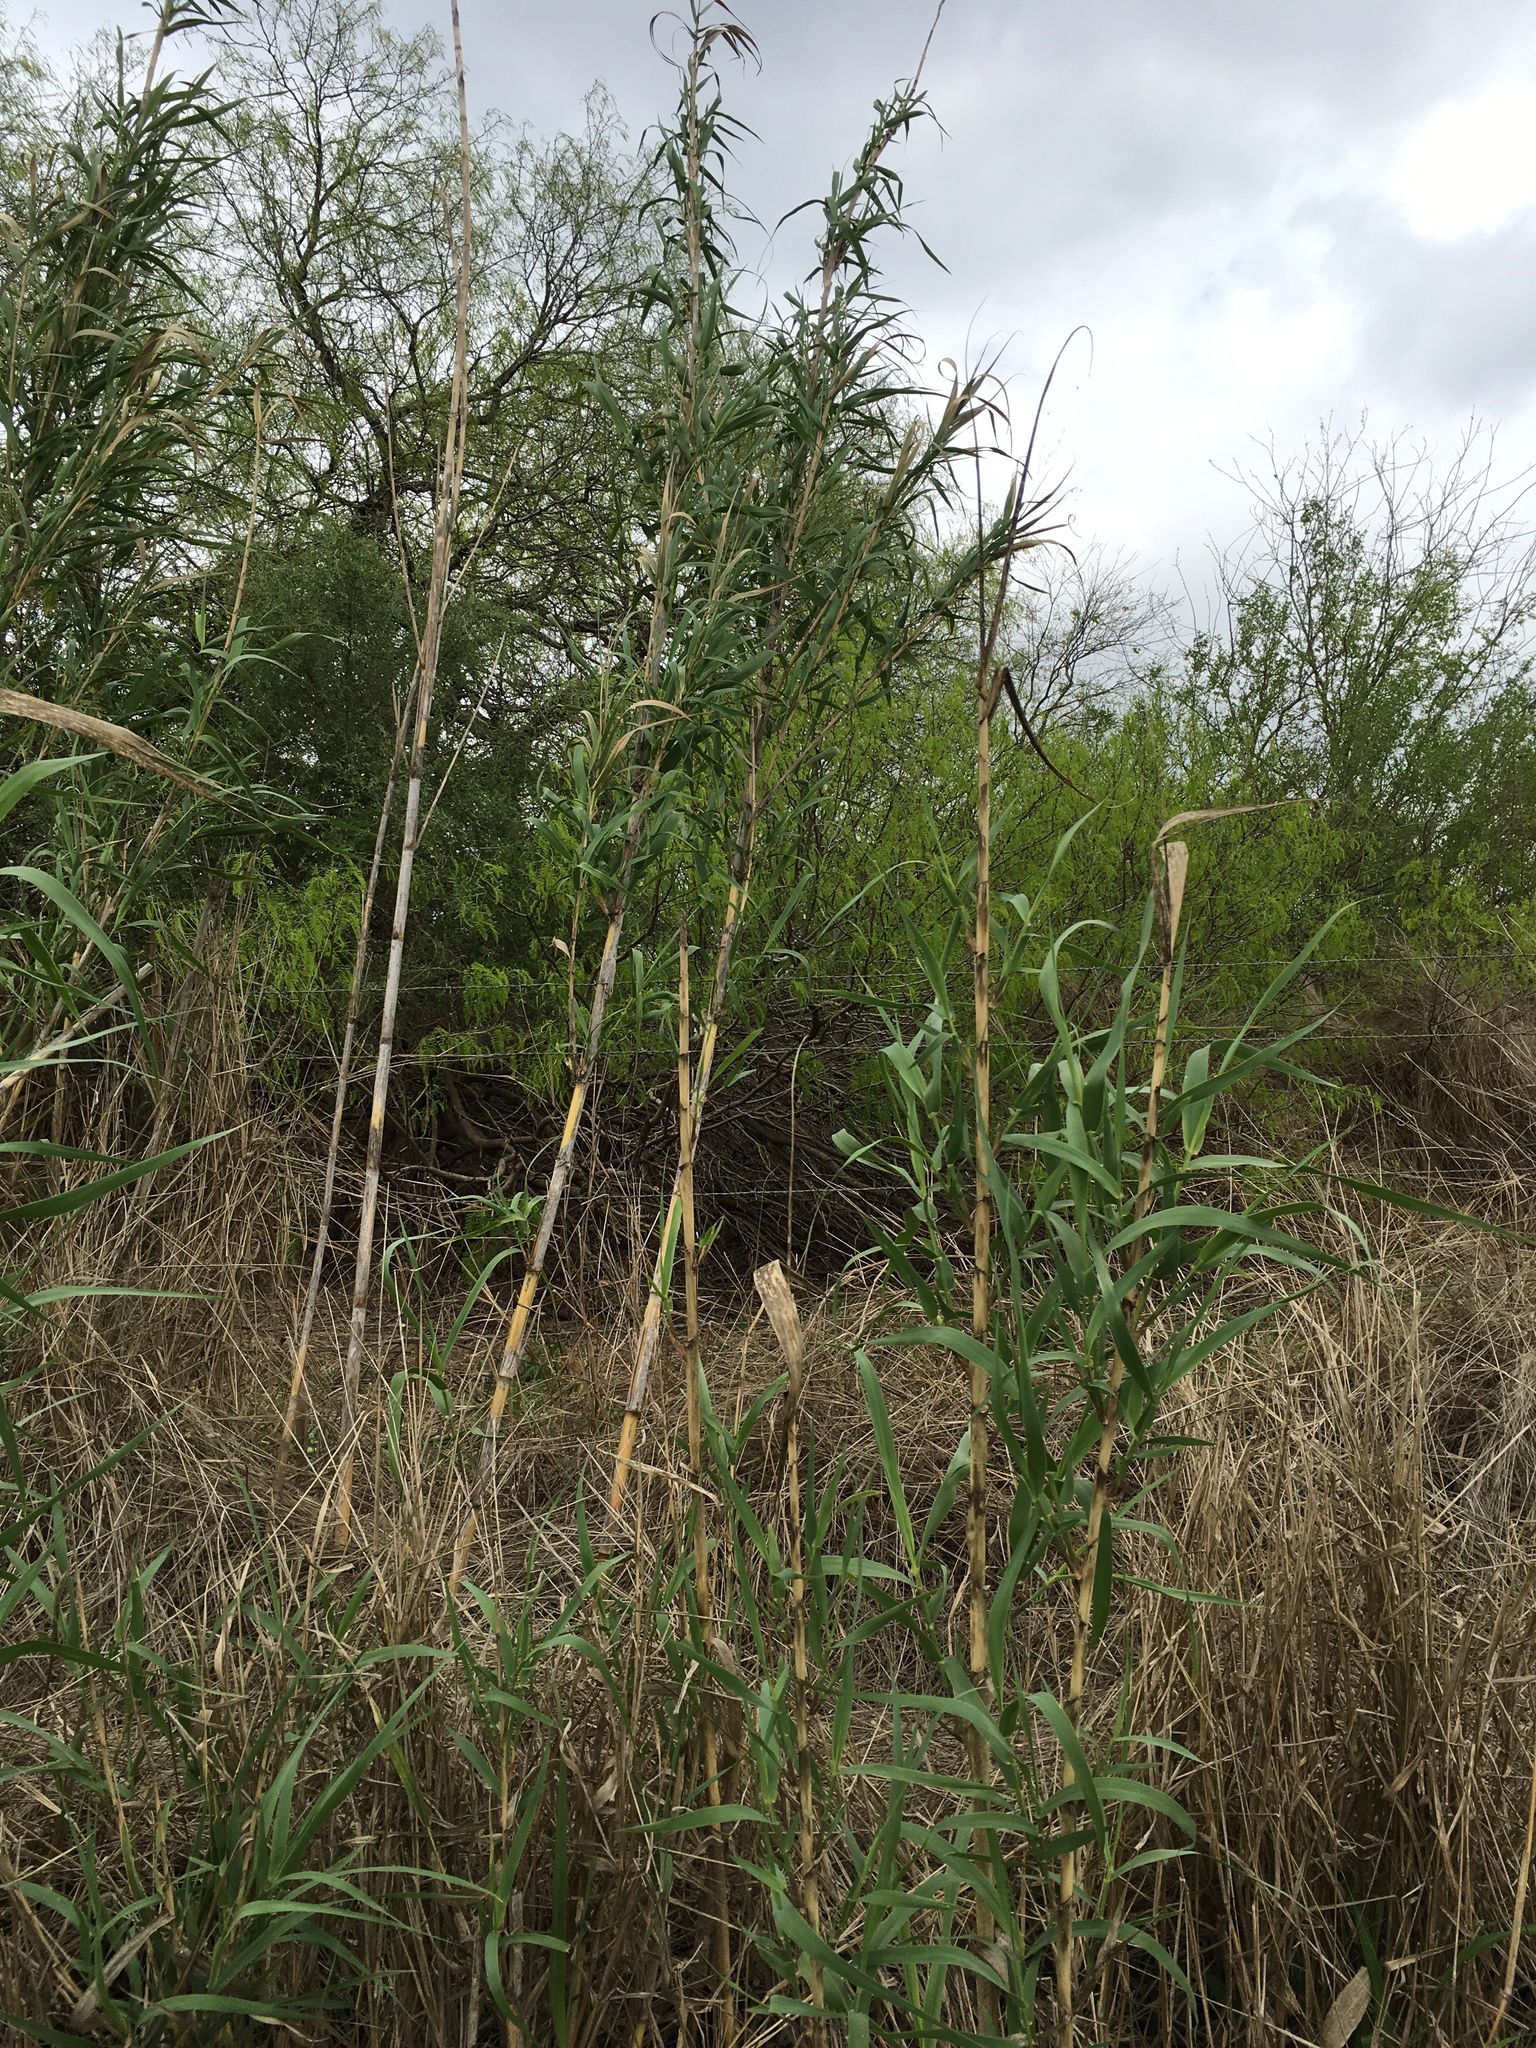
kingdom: Plantae
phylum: Tracheophyta
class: Liliopsida
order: Poales
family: Poaceae
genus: Arundo
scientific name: Arundo donax
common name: Giant reed
